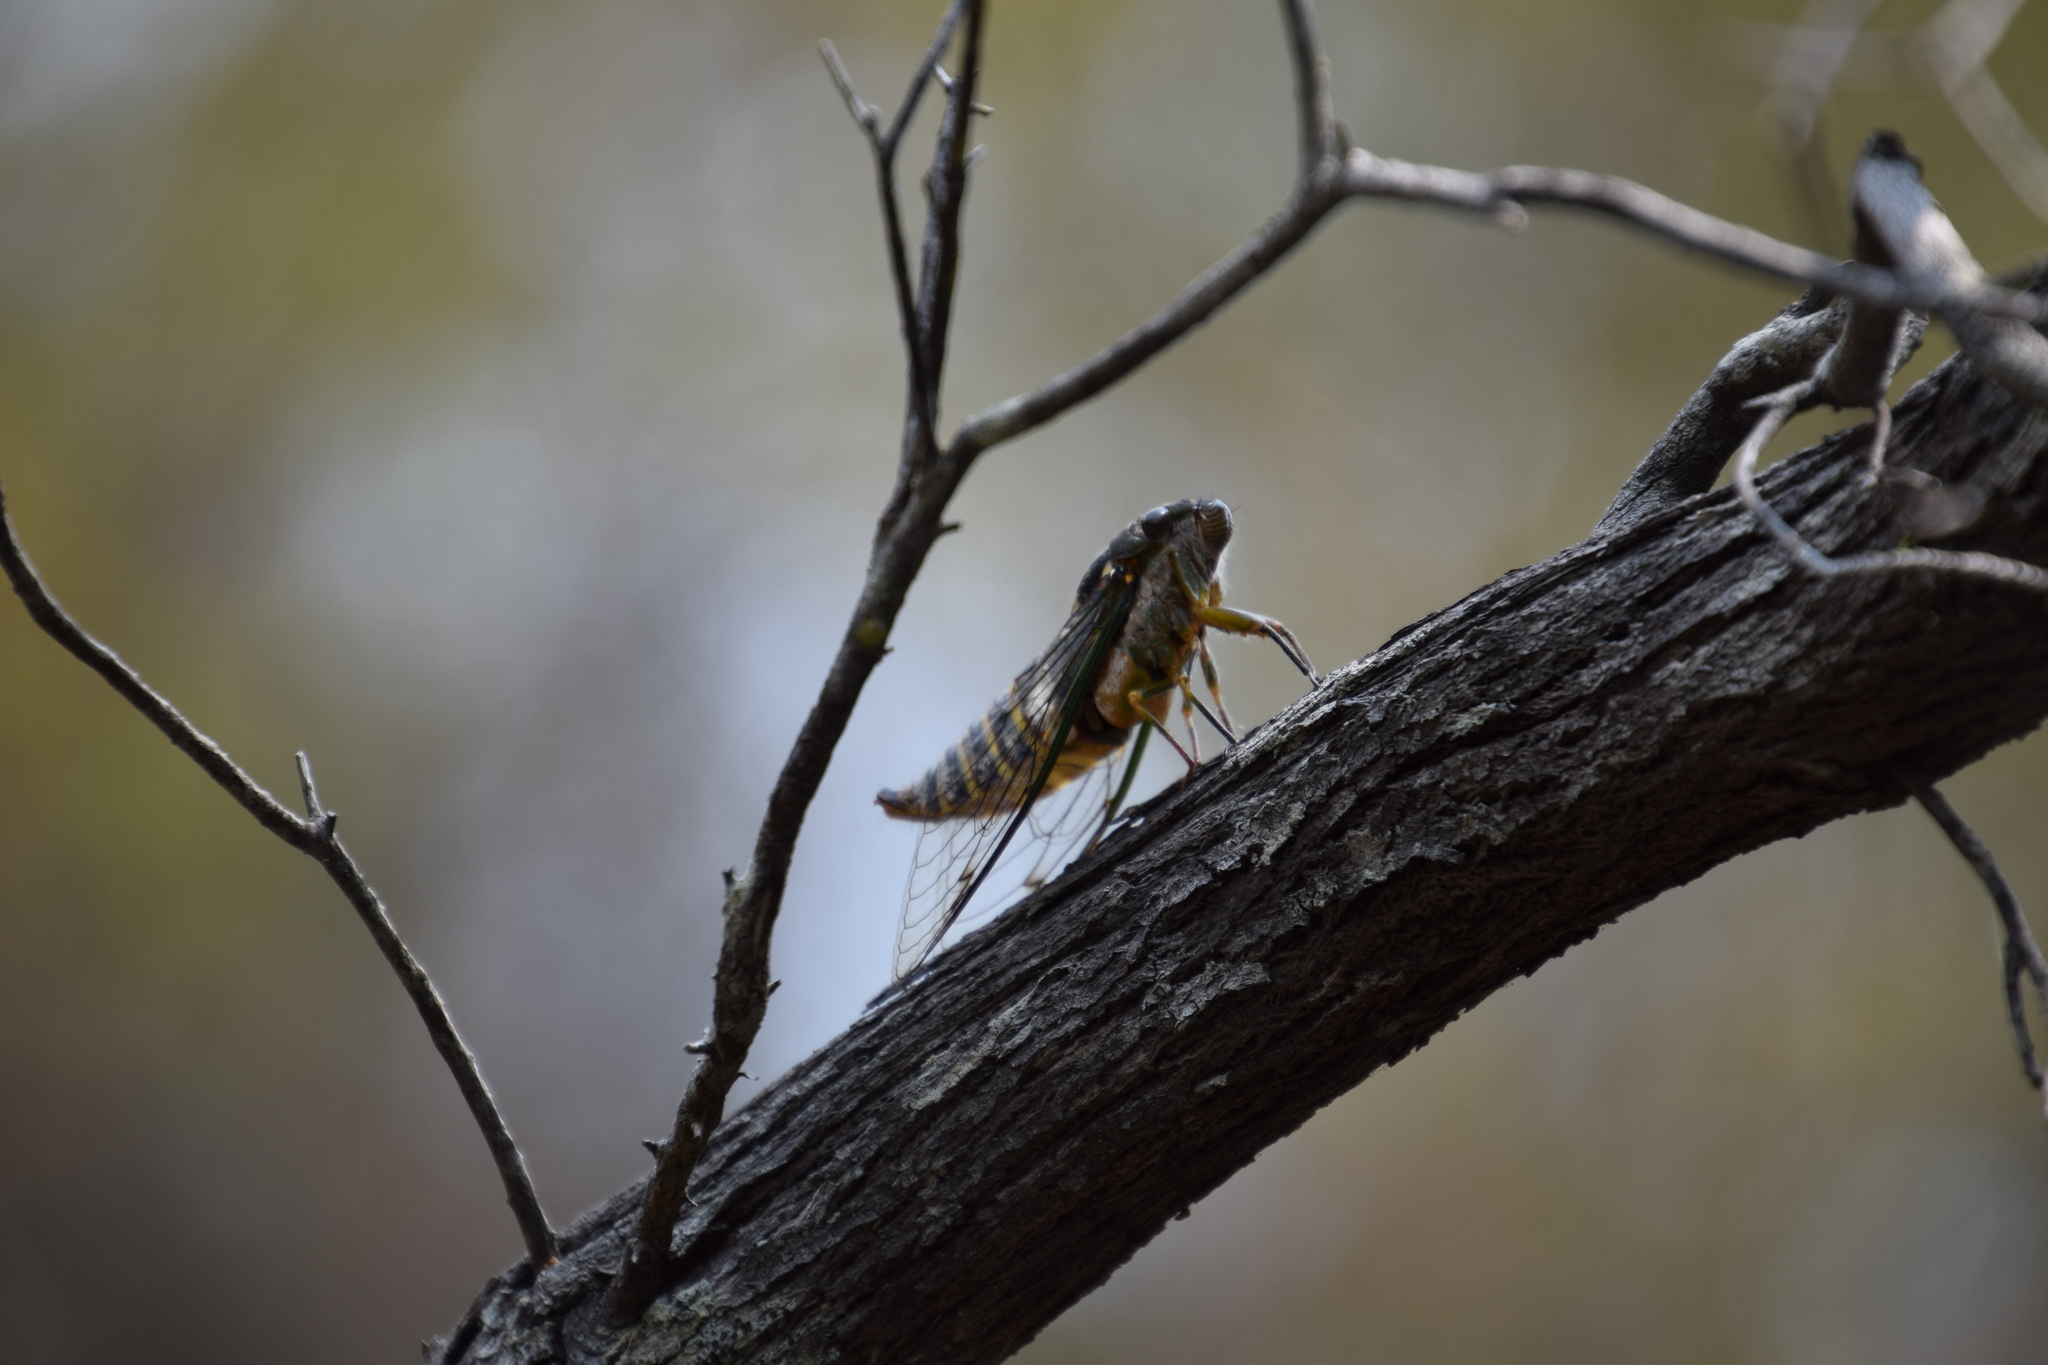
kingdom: Animalia
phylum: Arthropoda
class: Insecta
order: Hemiptera
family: Cicadidae
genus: Psaltoda
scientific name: Psaltoda plaga
